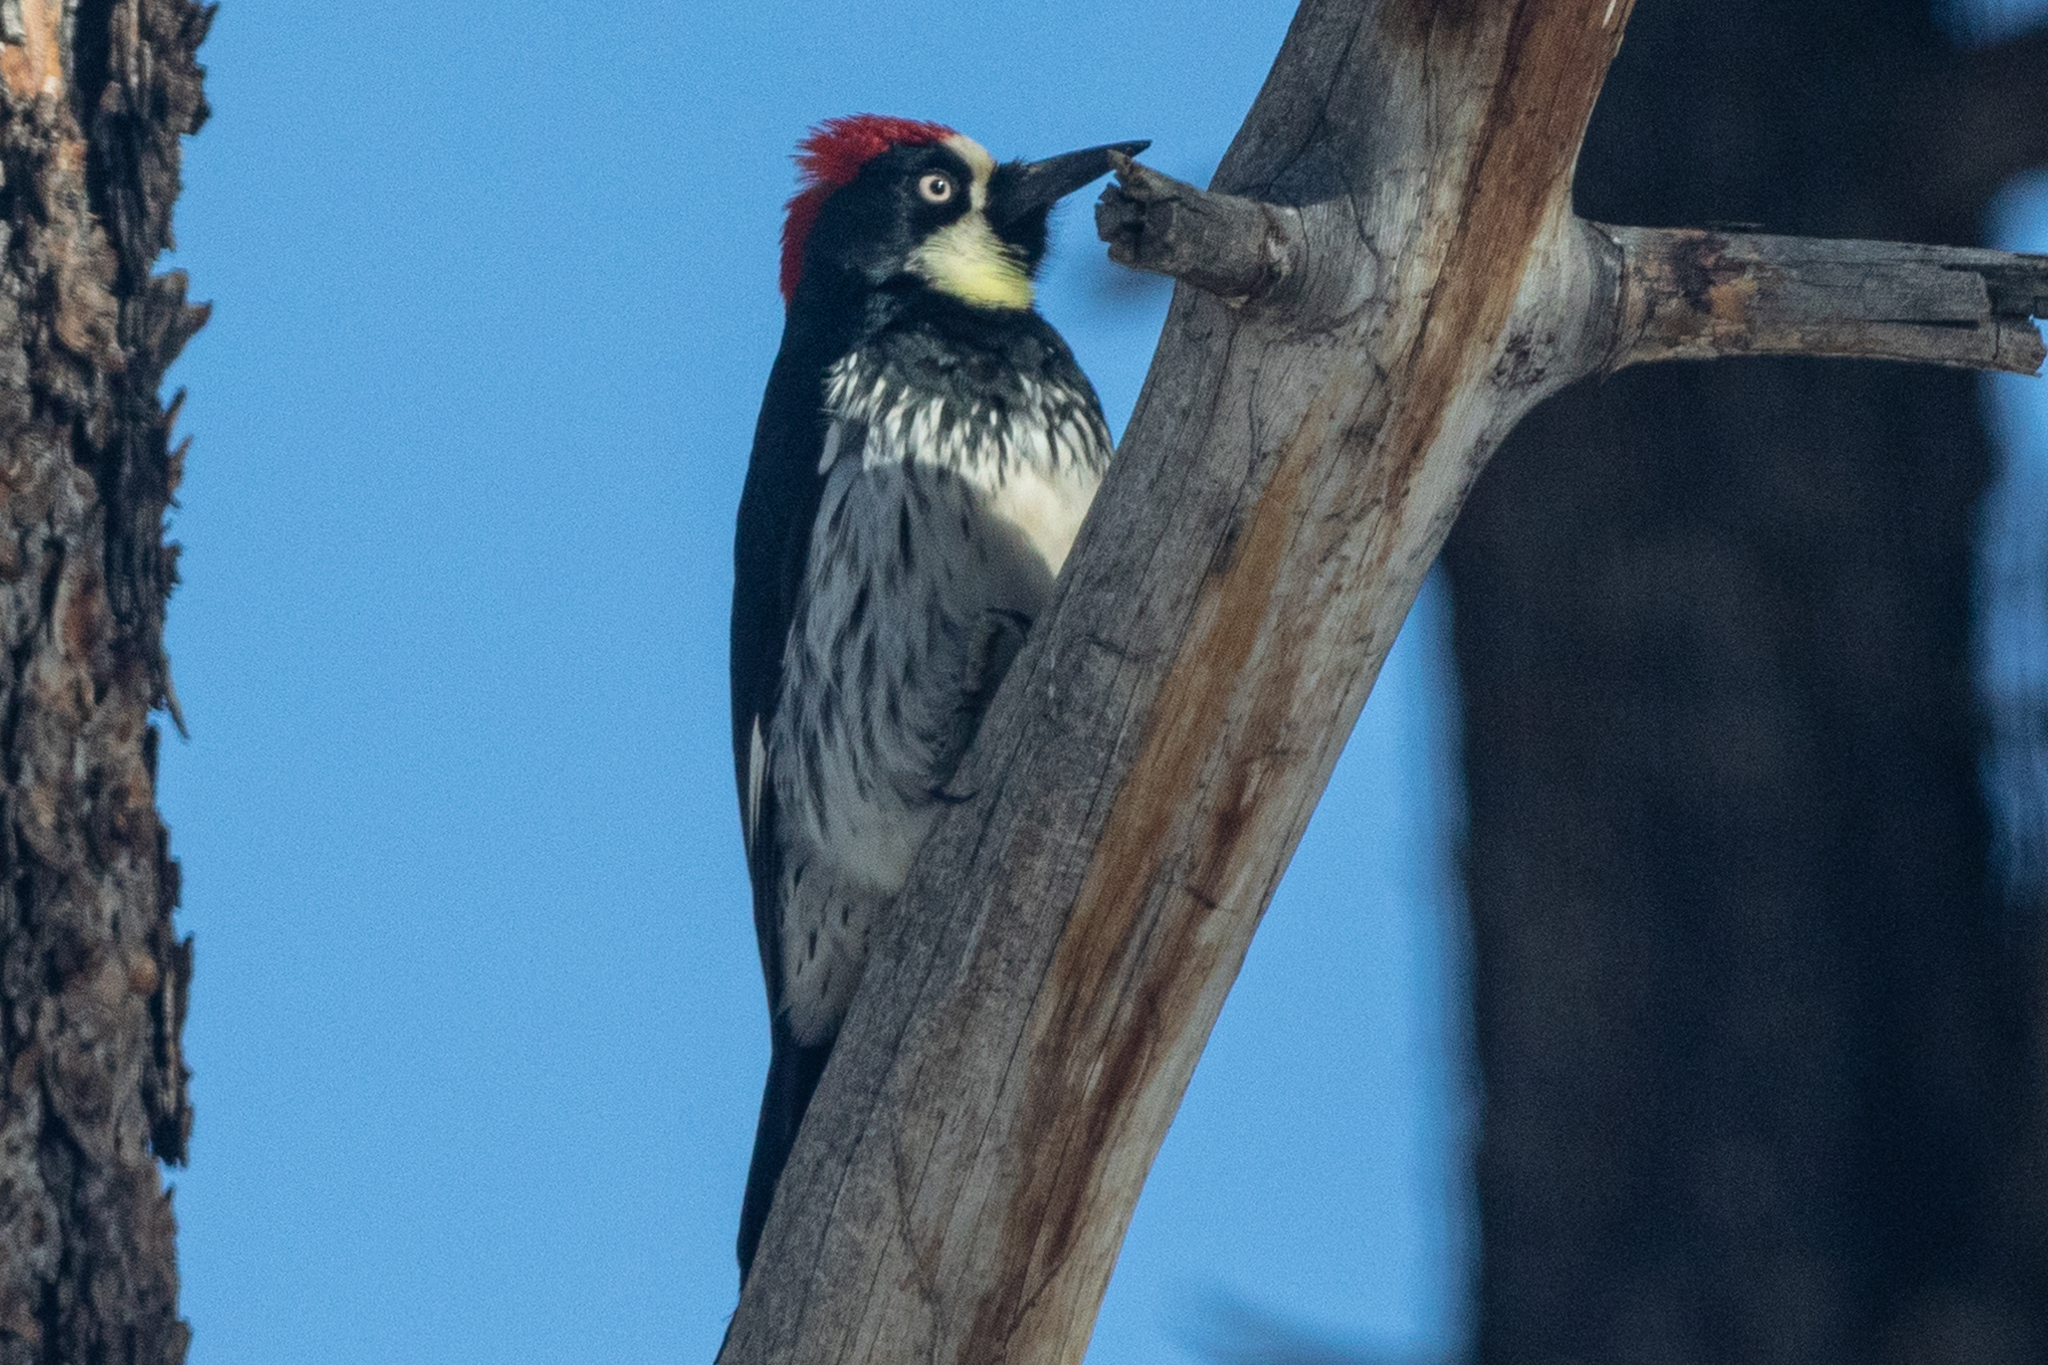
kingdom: Animalia
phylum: Chordata
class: Aves
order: Piciformes
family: Picidae
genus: Melanerpes
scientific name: Melanerpes formicivorus
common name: Acorn woodpecker
